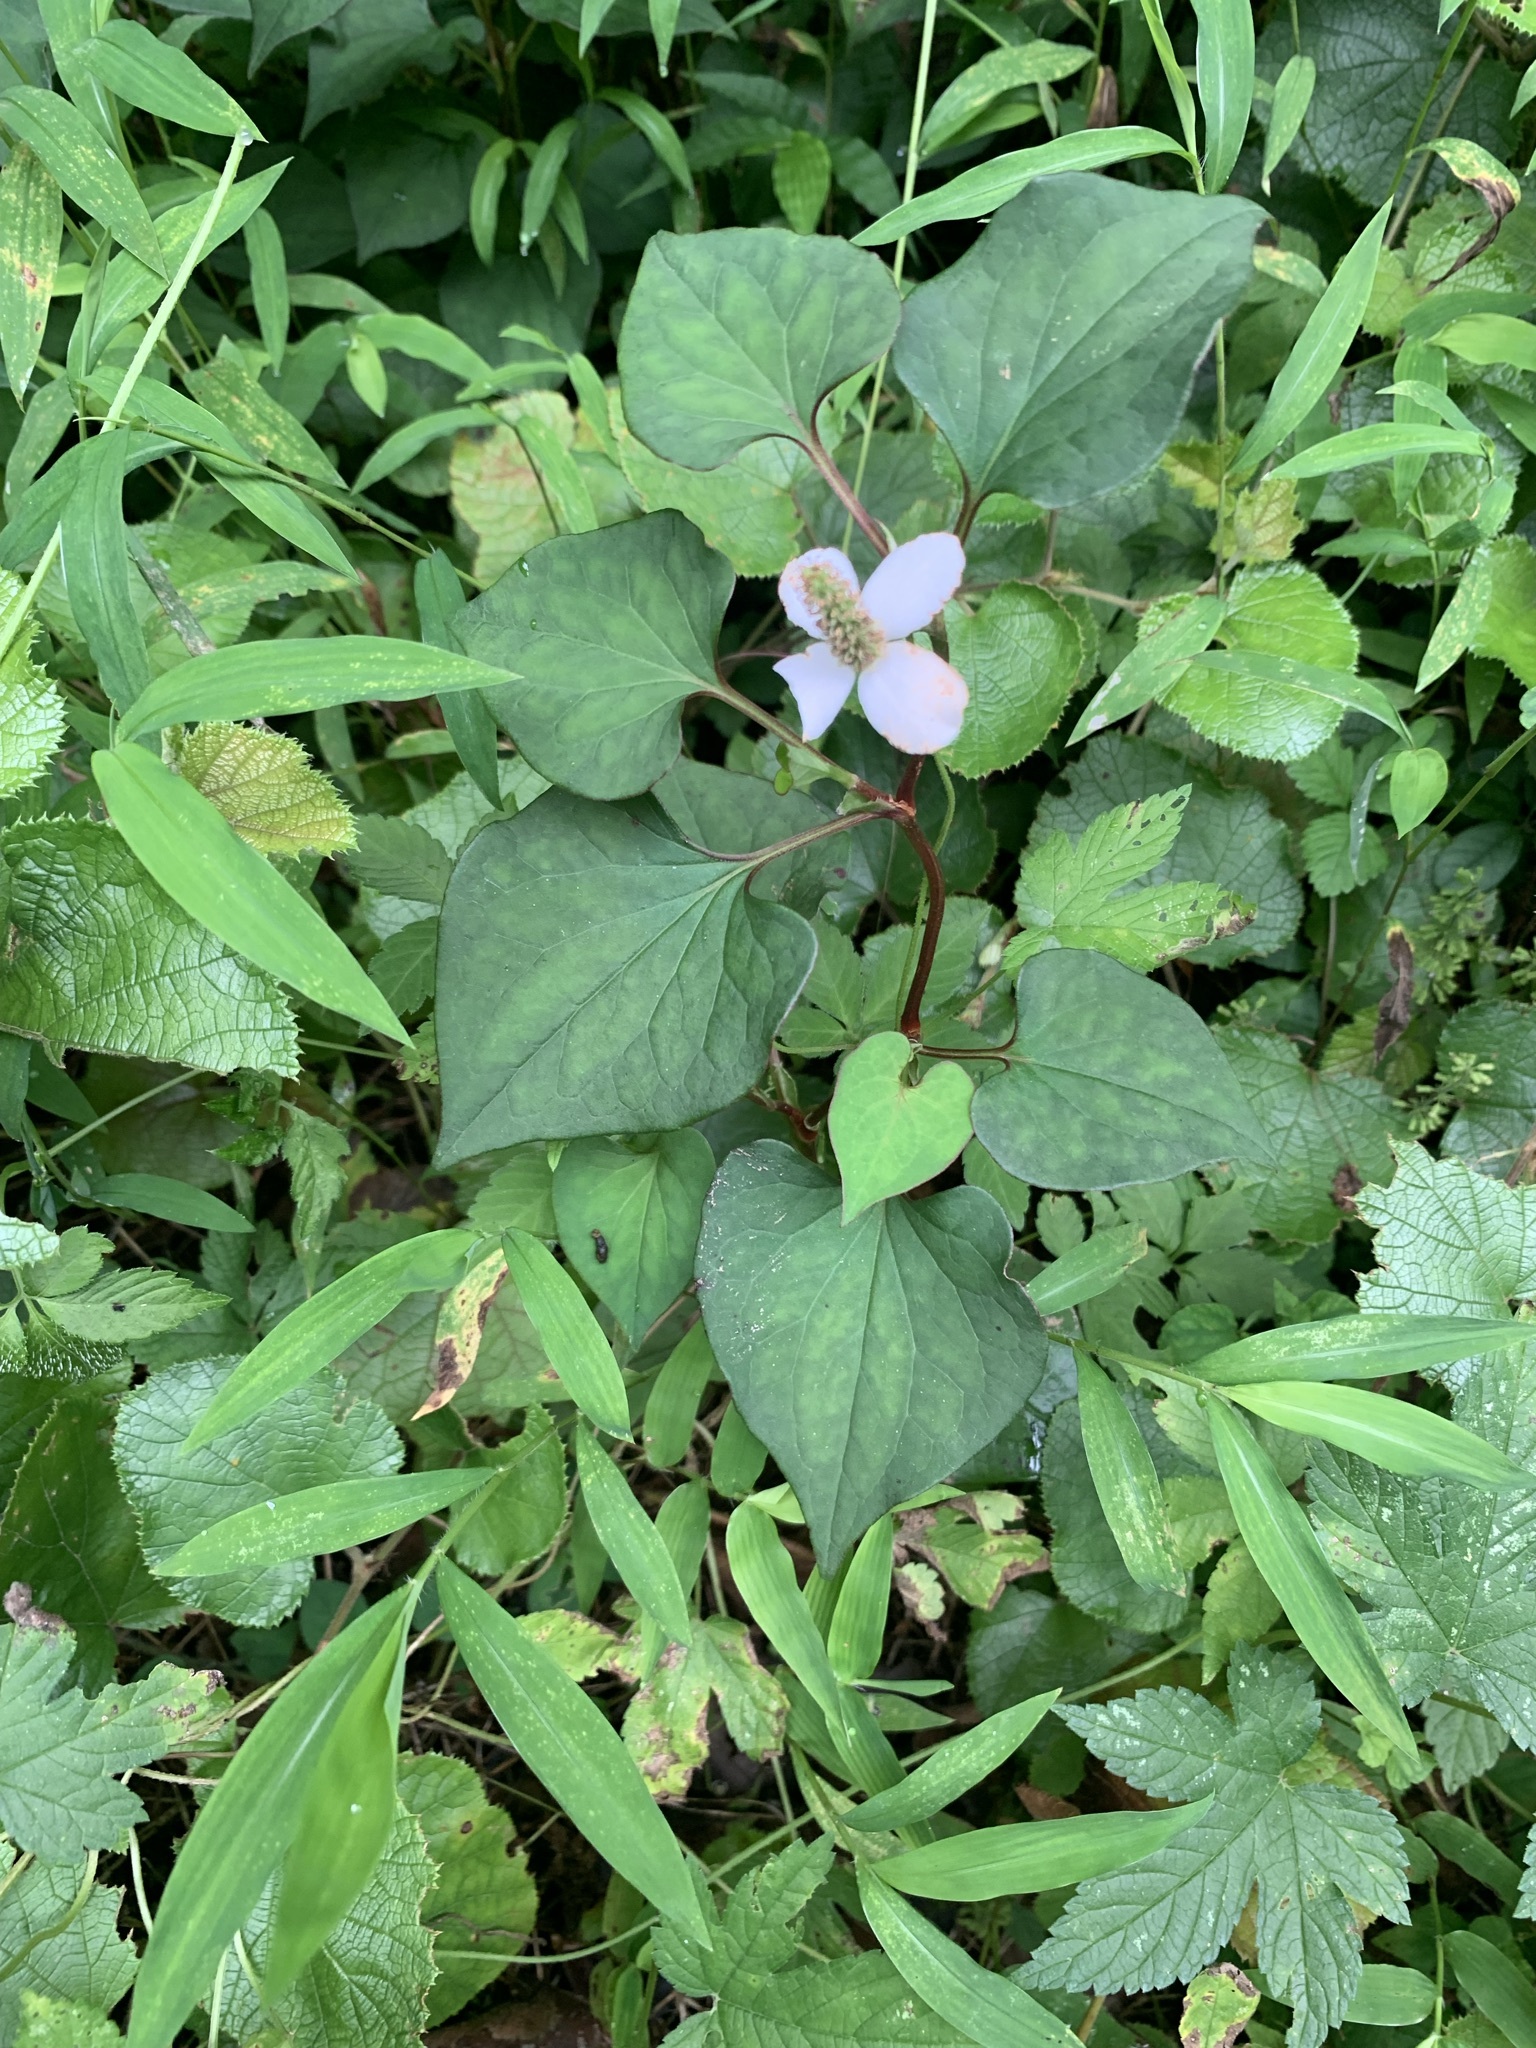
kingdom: Plantae
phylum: Tracheophyta
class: Magnoliopsida
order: Piperales
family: Saururaceae
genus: Houttuynia
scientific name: Houttuynia cordata
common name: Chameleon
